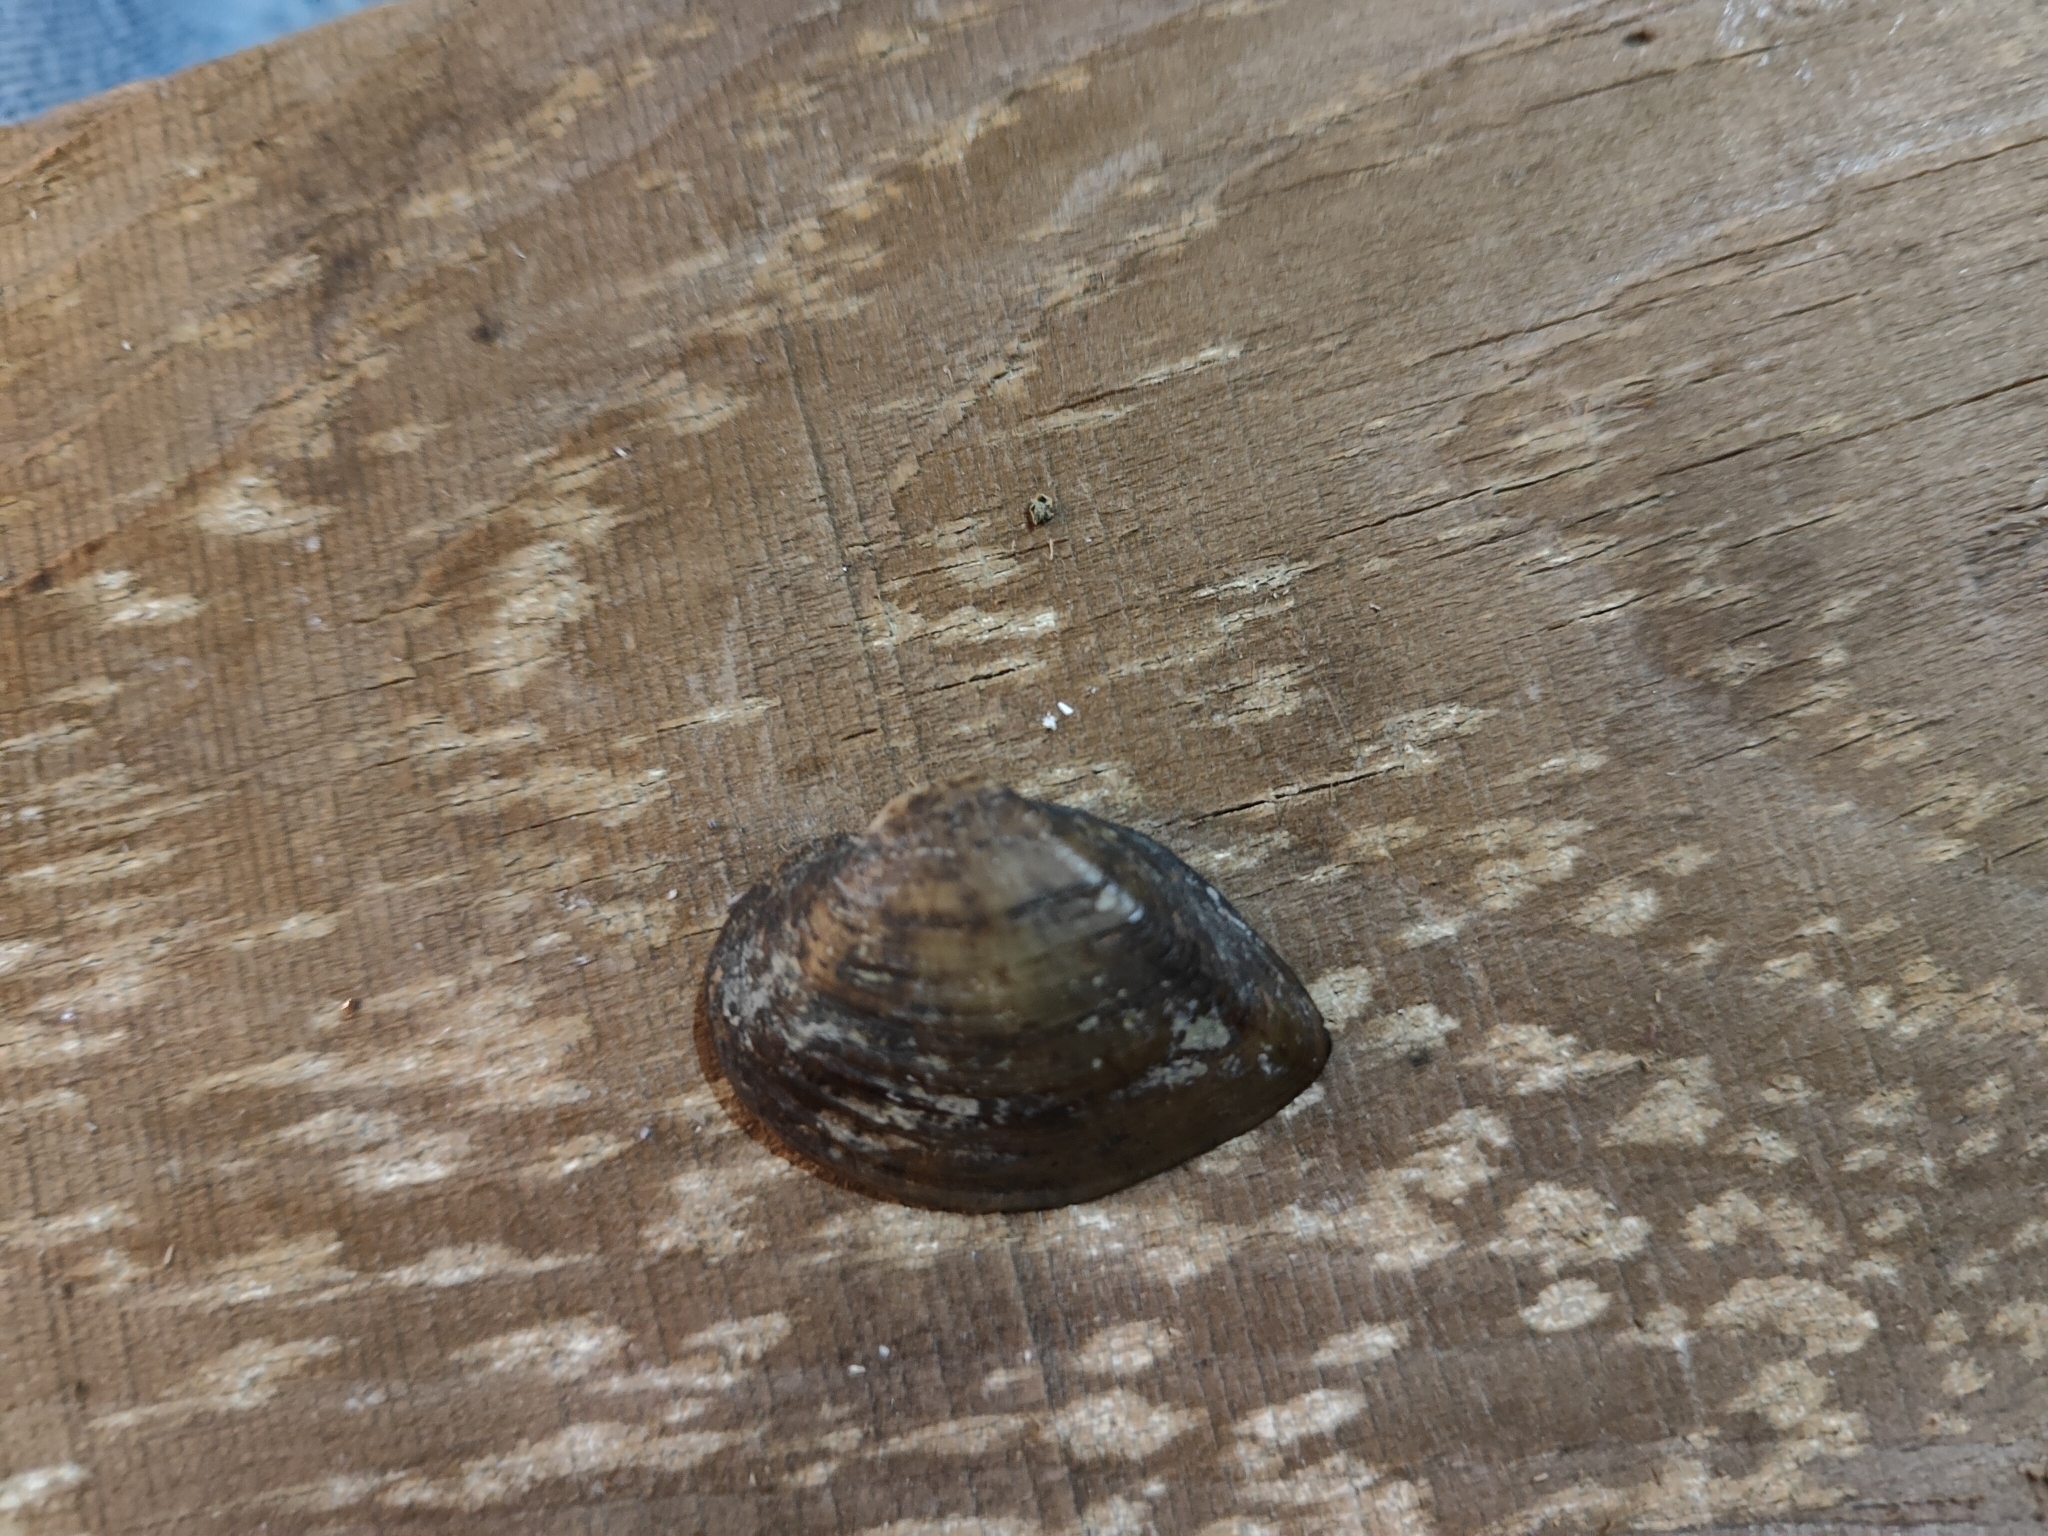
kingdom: Animalia
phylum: Mollusca
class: Bivalvia
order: Unionida
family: Unionidae
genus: Truncilla
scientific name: Truncilla truncata
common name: Deertoe
